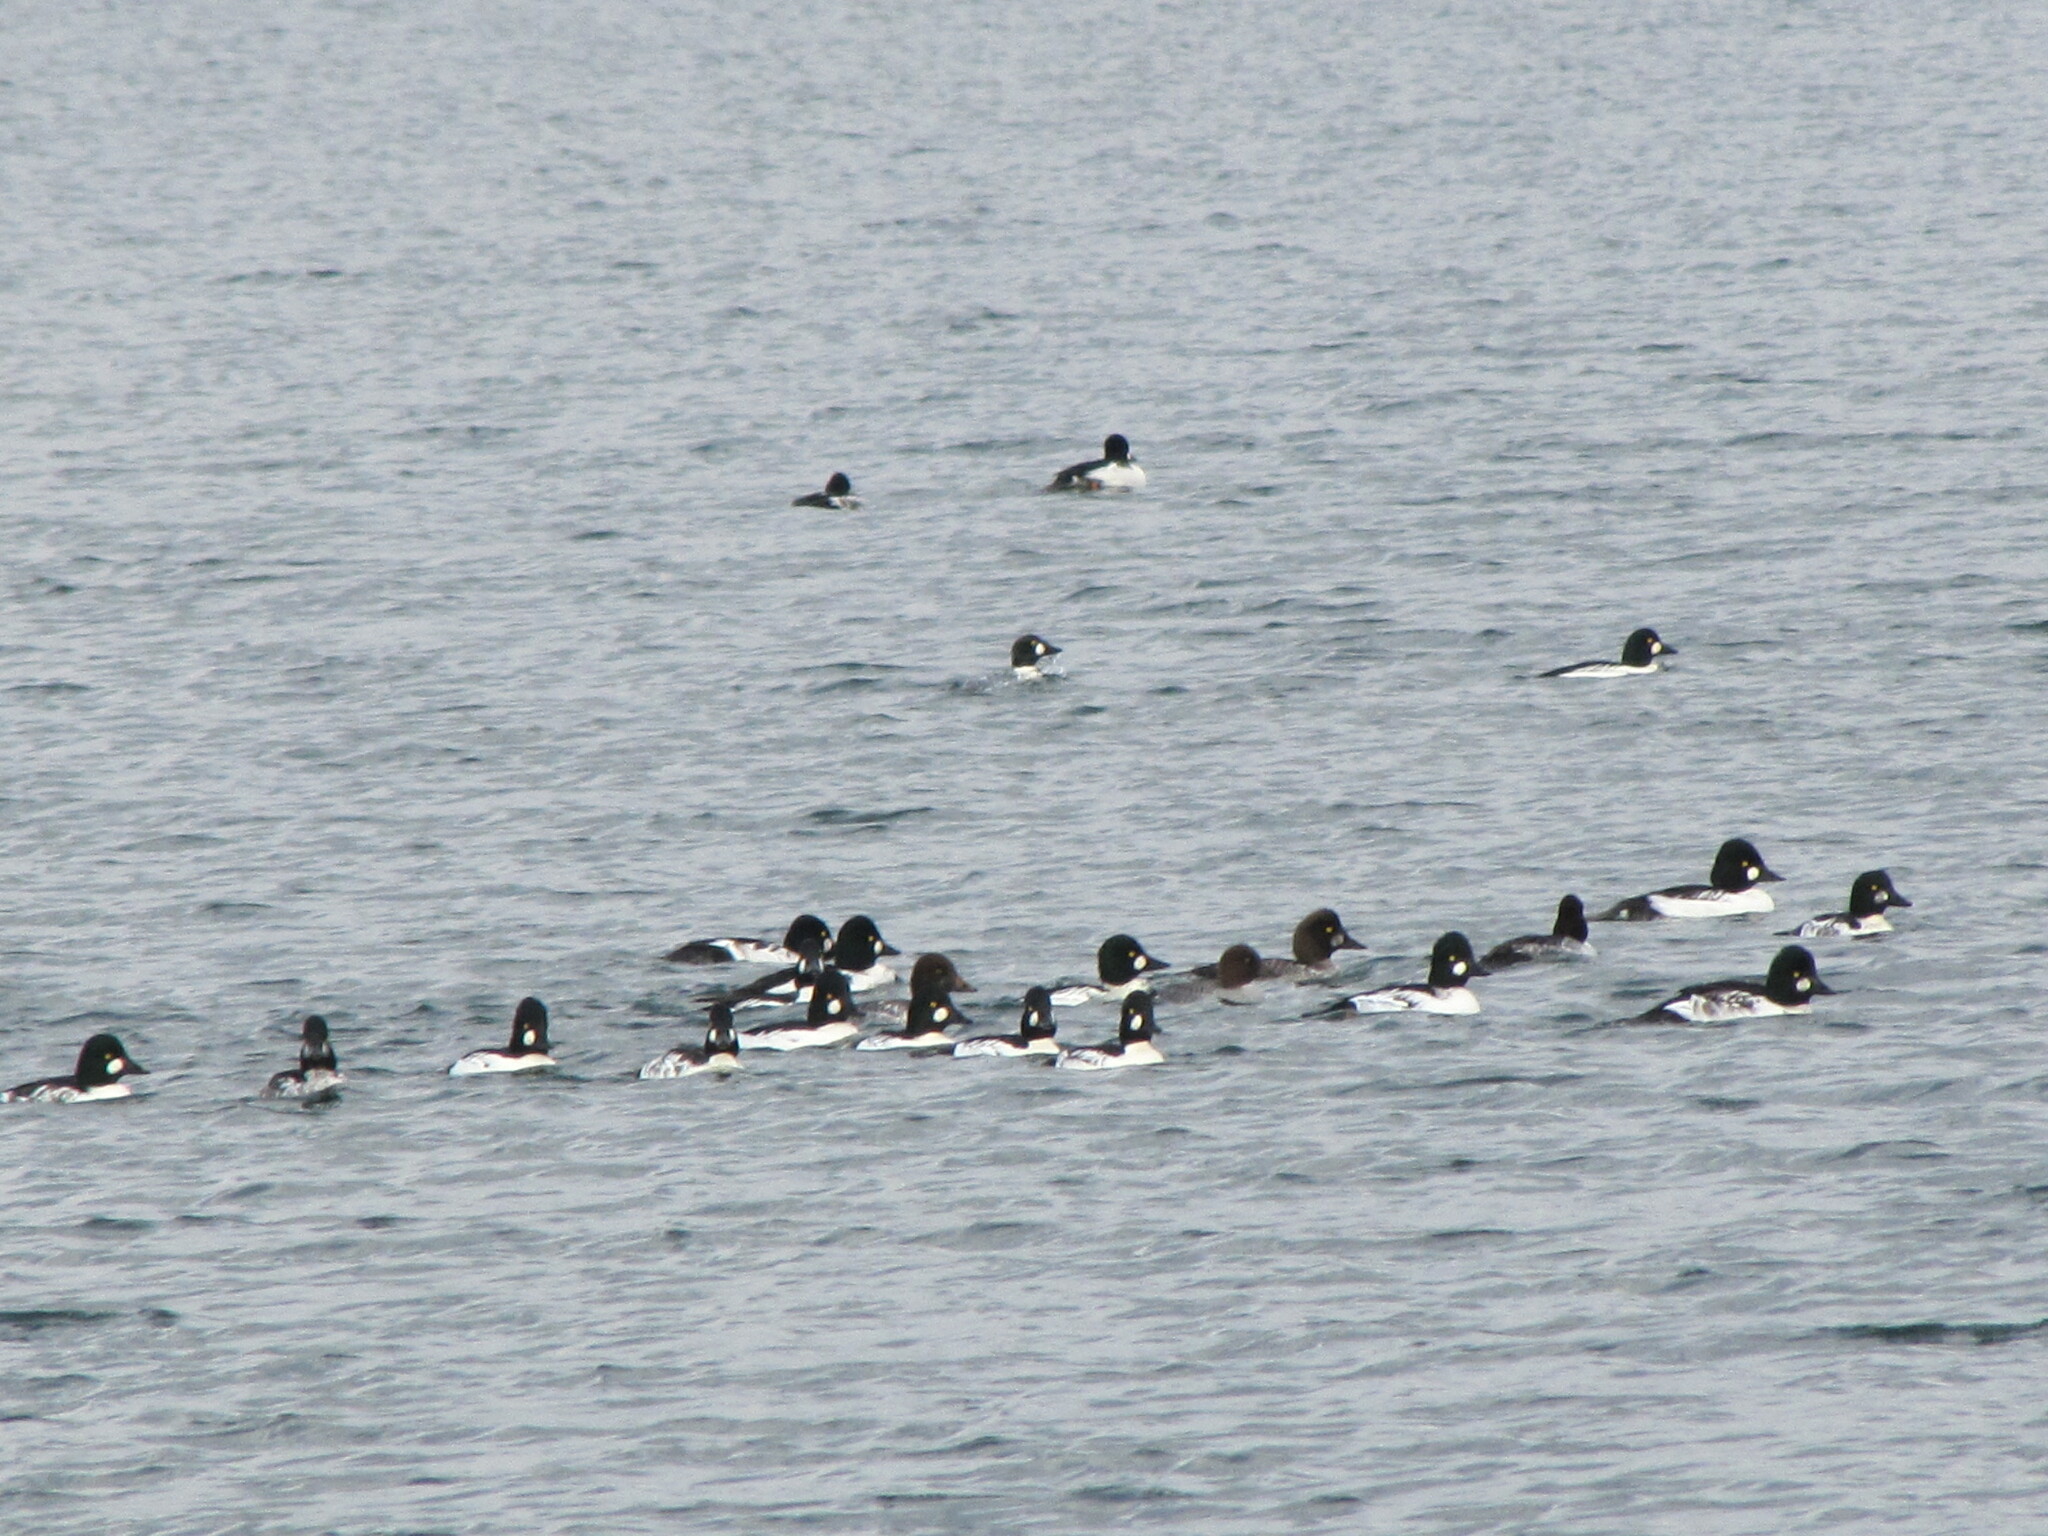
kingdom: Animalia
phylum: Chordata
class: Aves
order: Anseriformes
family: Anatidae
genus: Bucephala
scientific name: Bucephala clangula
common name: Common goldeneye
